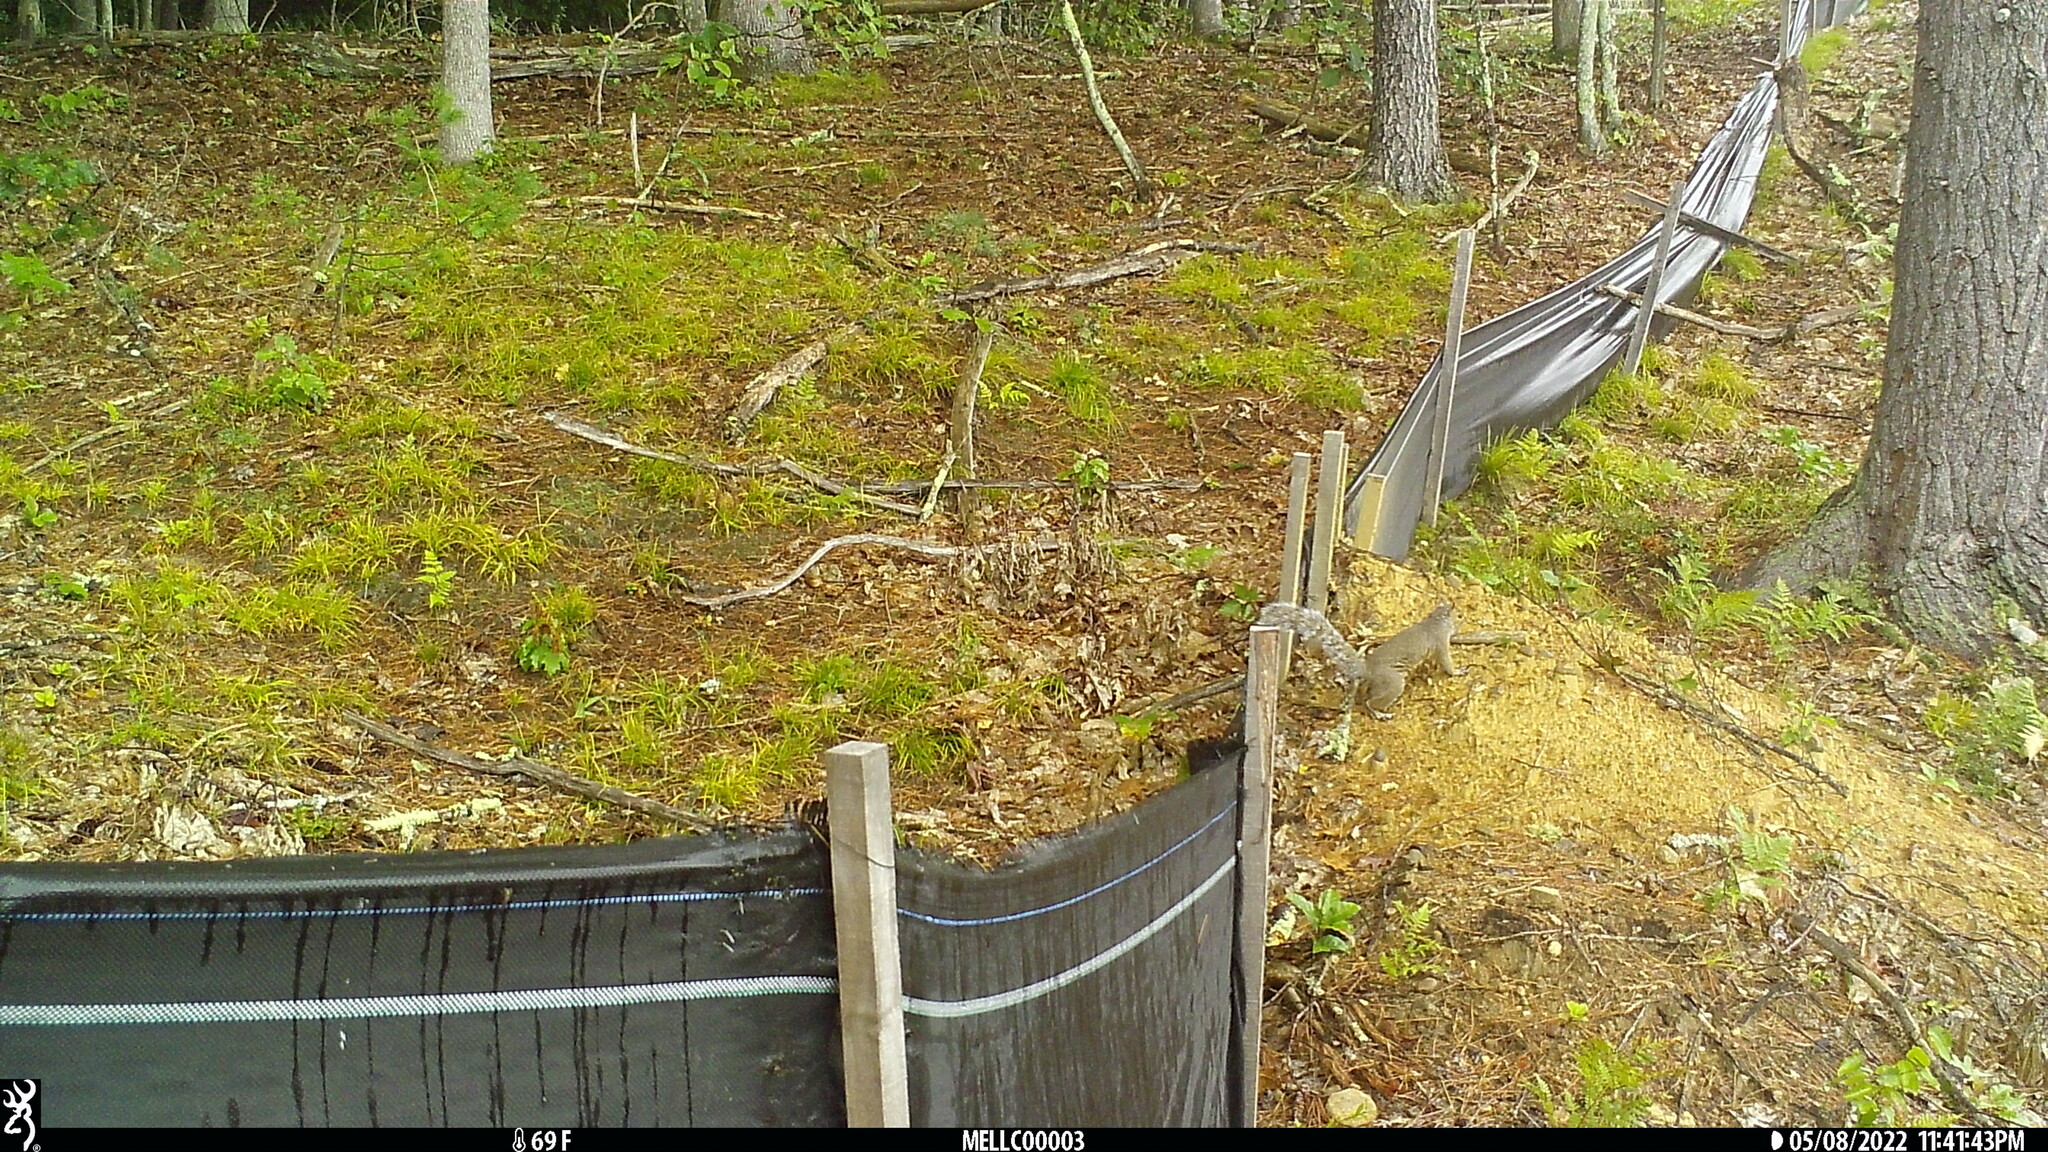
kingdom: Animalia
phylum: Chordata
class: Mammalia
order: Rodentia
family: Sciuridae
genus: Sciurus
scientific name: Sciurus carolinensis
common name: Eastern gray squirrel
